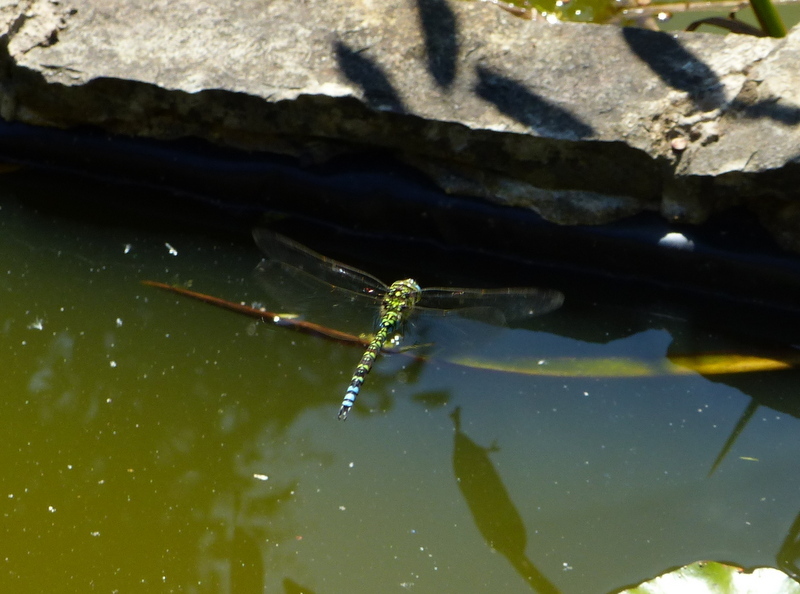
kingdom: Animalia
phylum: Arthropoda
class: Insecta
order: Odonata
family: Aeshnidae
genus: Aeshna
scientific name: Aeshna cyanea
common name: Southern hawker
